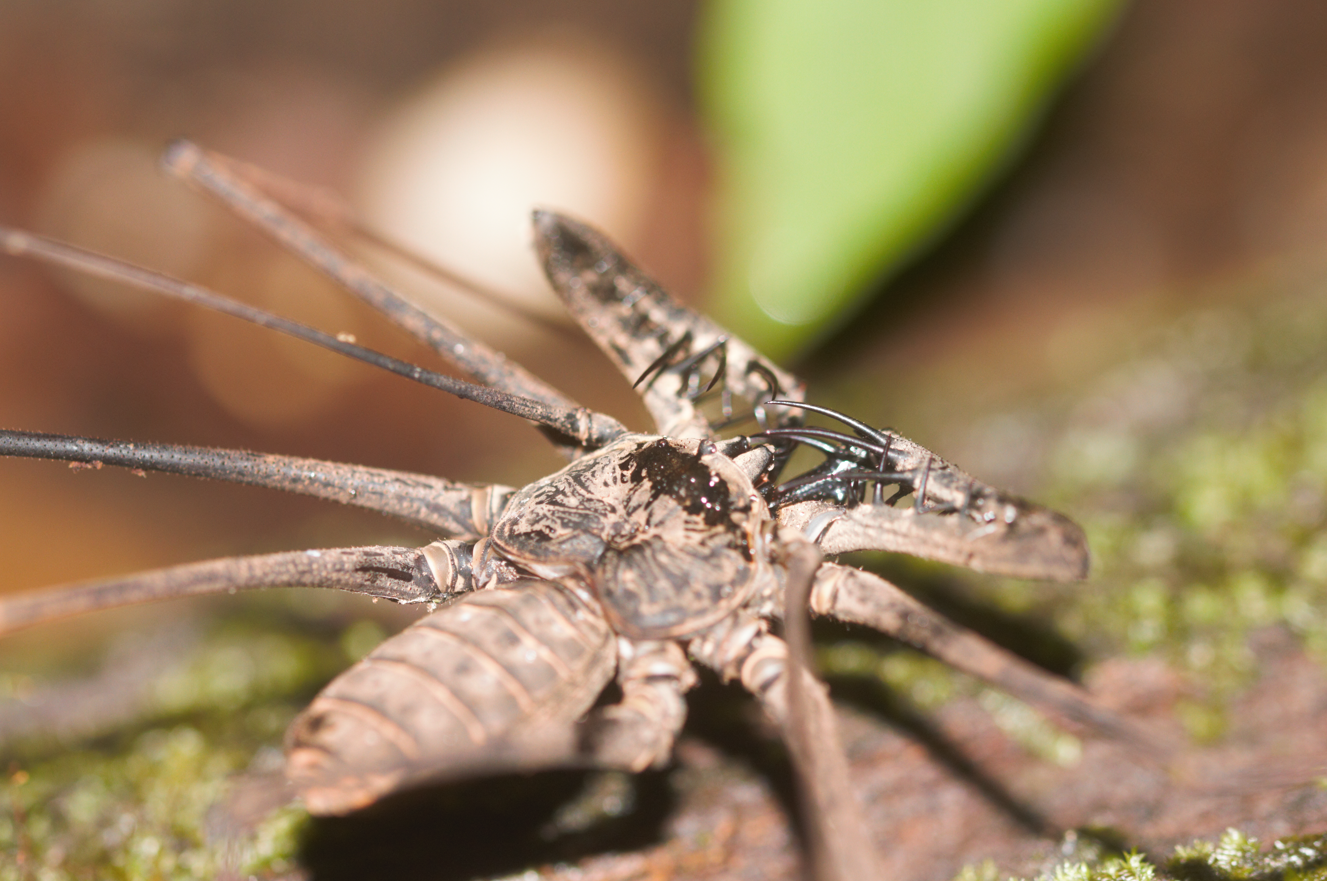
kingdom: Animalia
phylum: Arthropoda
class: Arachnida
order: Amblypygi
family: Phrynidae
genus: Heterophrynus
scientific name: Heterophrynus longicornis
